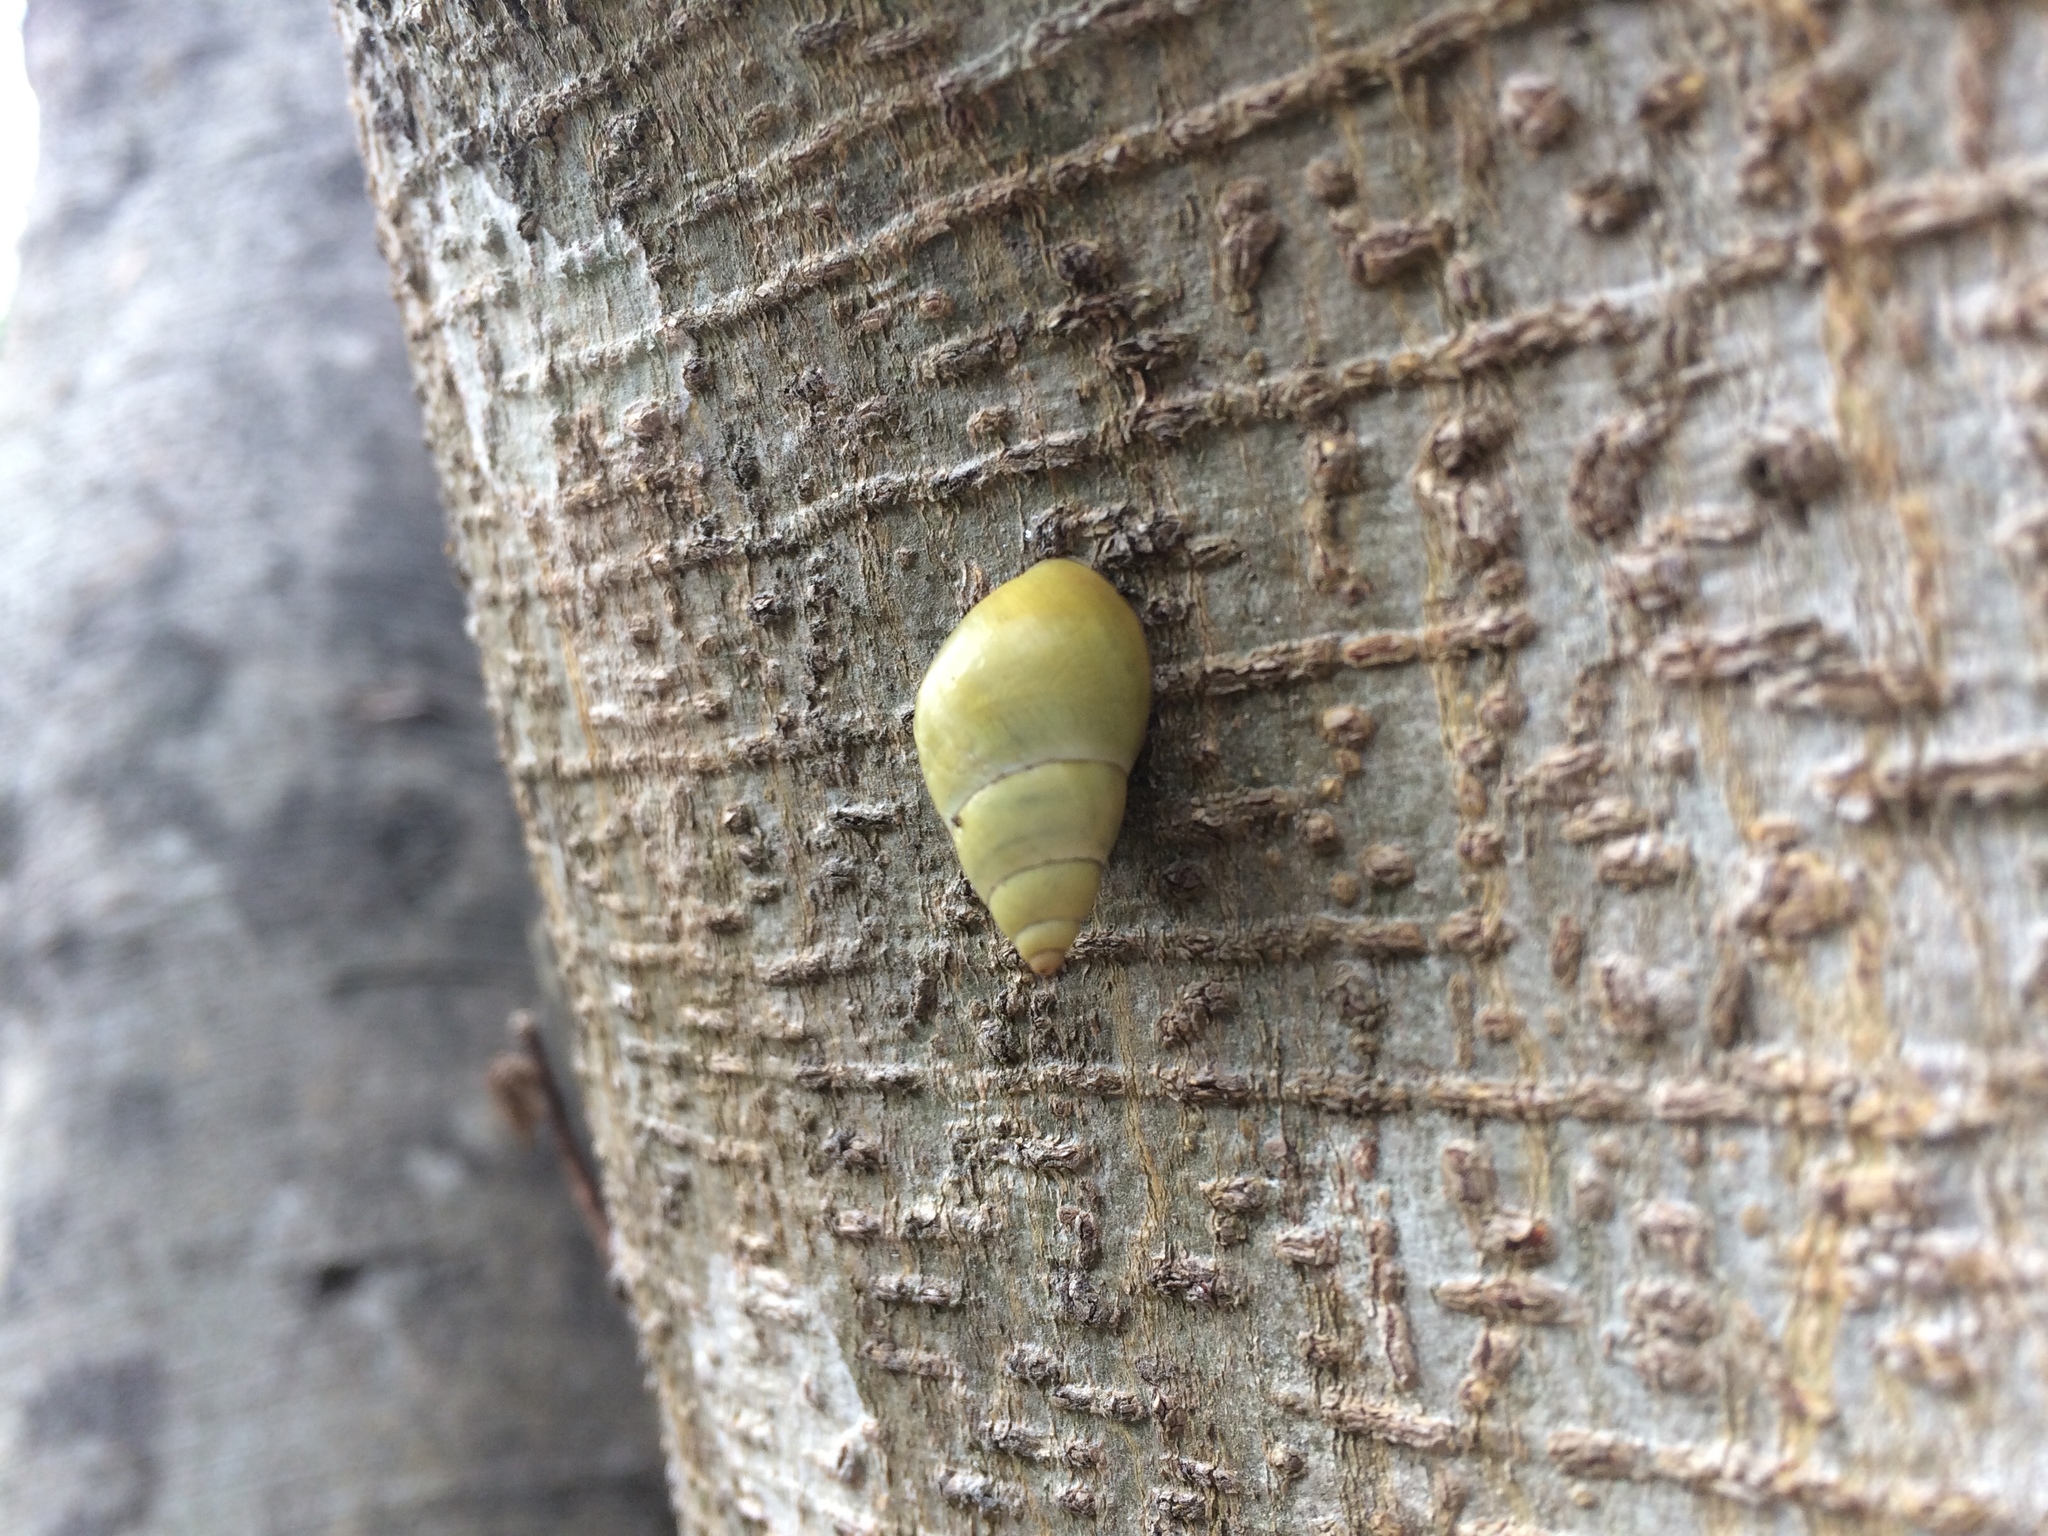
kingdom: Animalia
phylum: Mollusca
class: Gastropoda
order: Stylommatophora
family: Bulimulidae
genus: Drymaeus
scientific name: Drymaeus sulphureus
